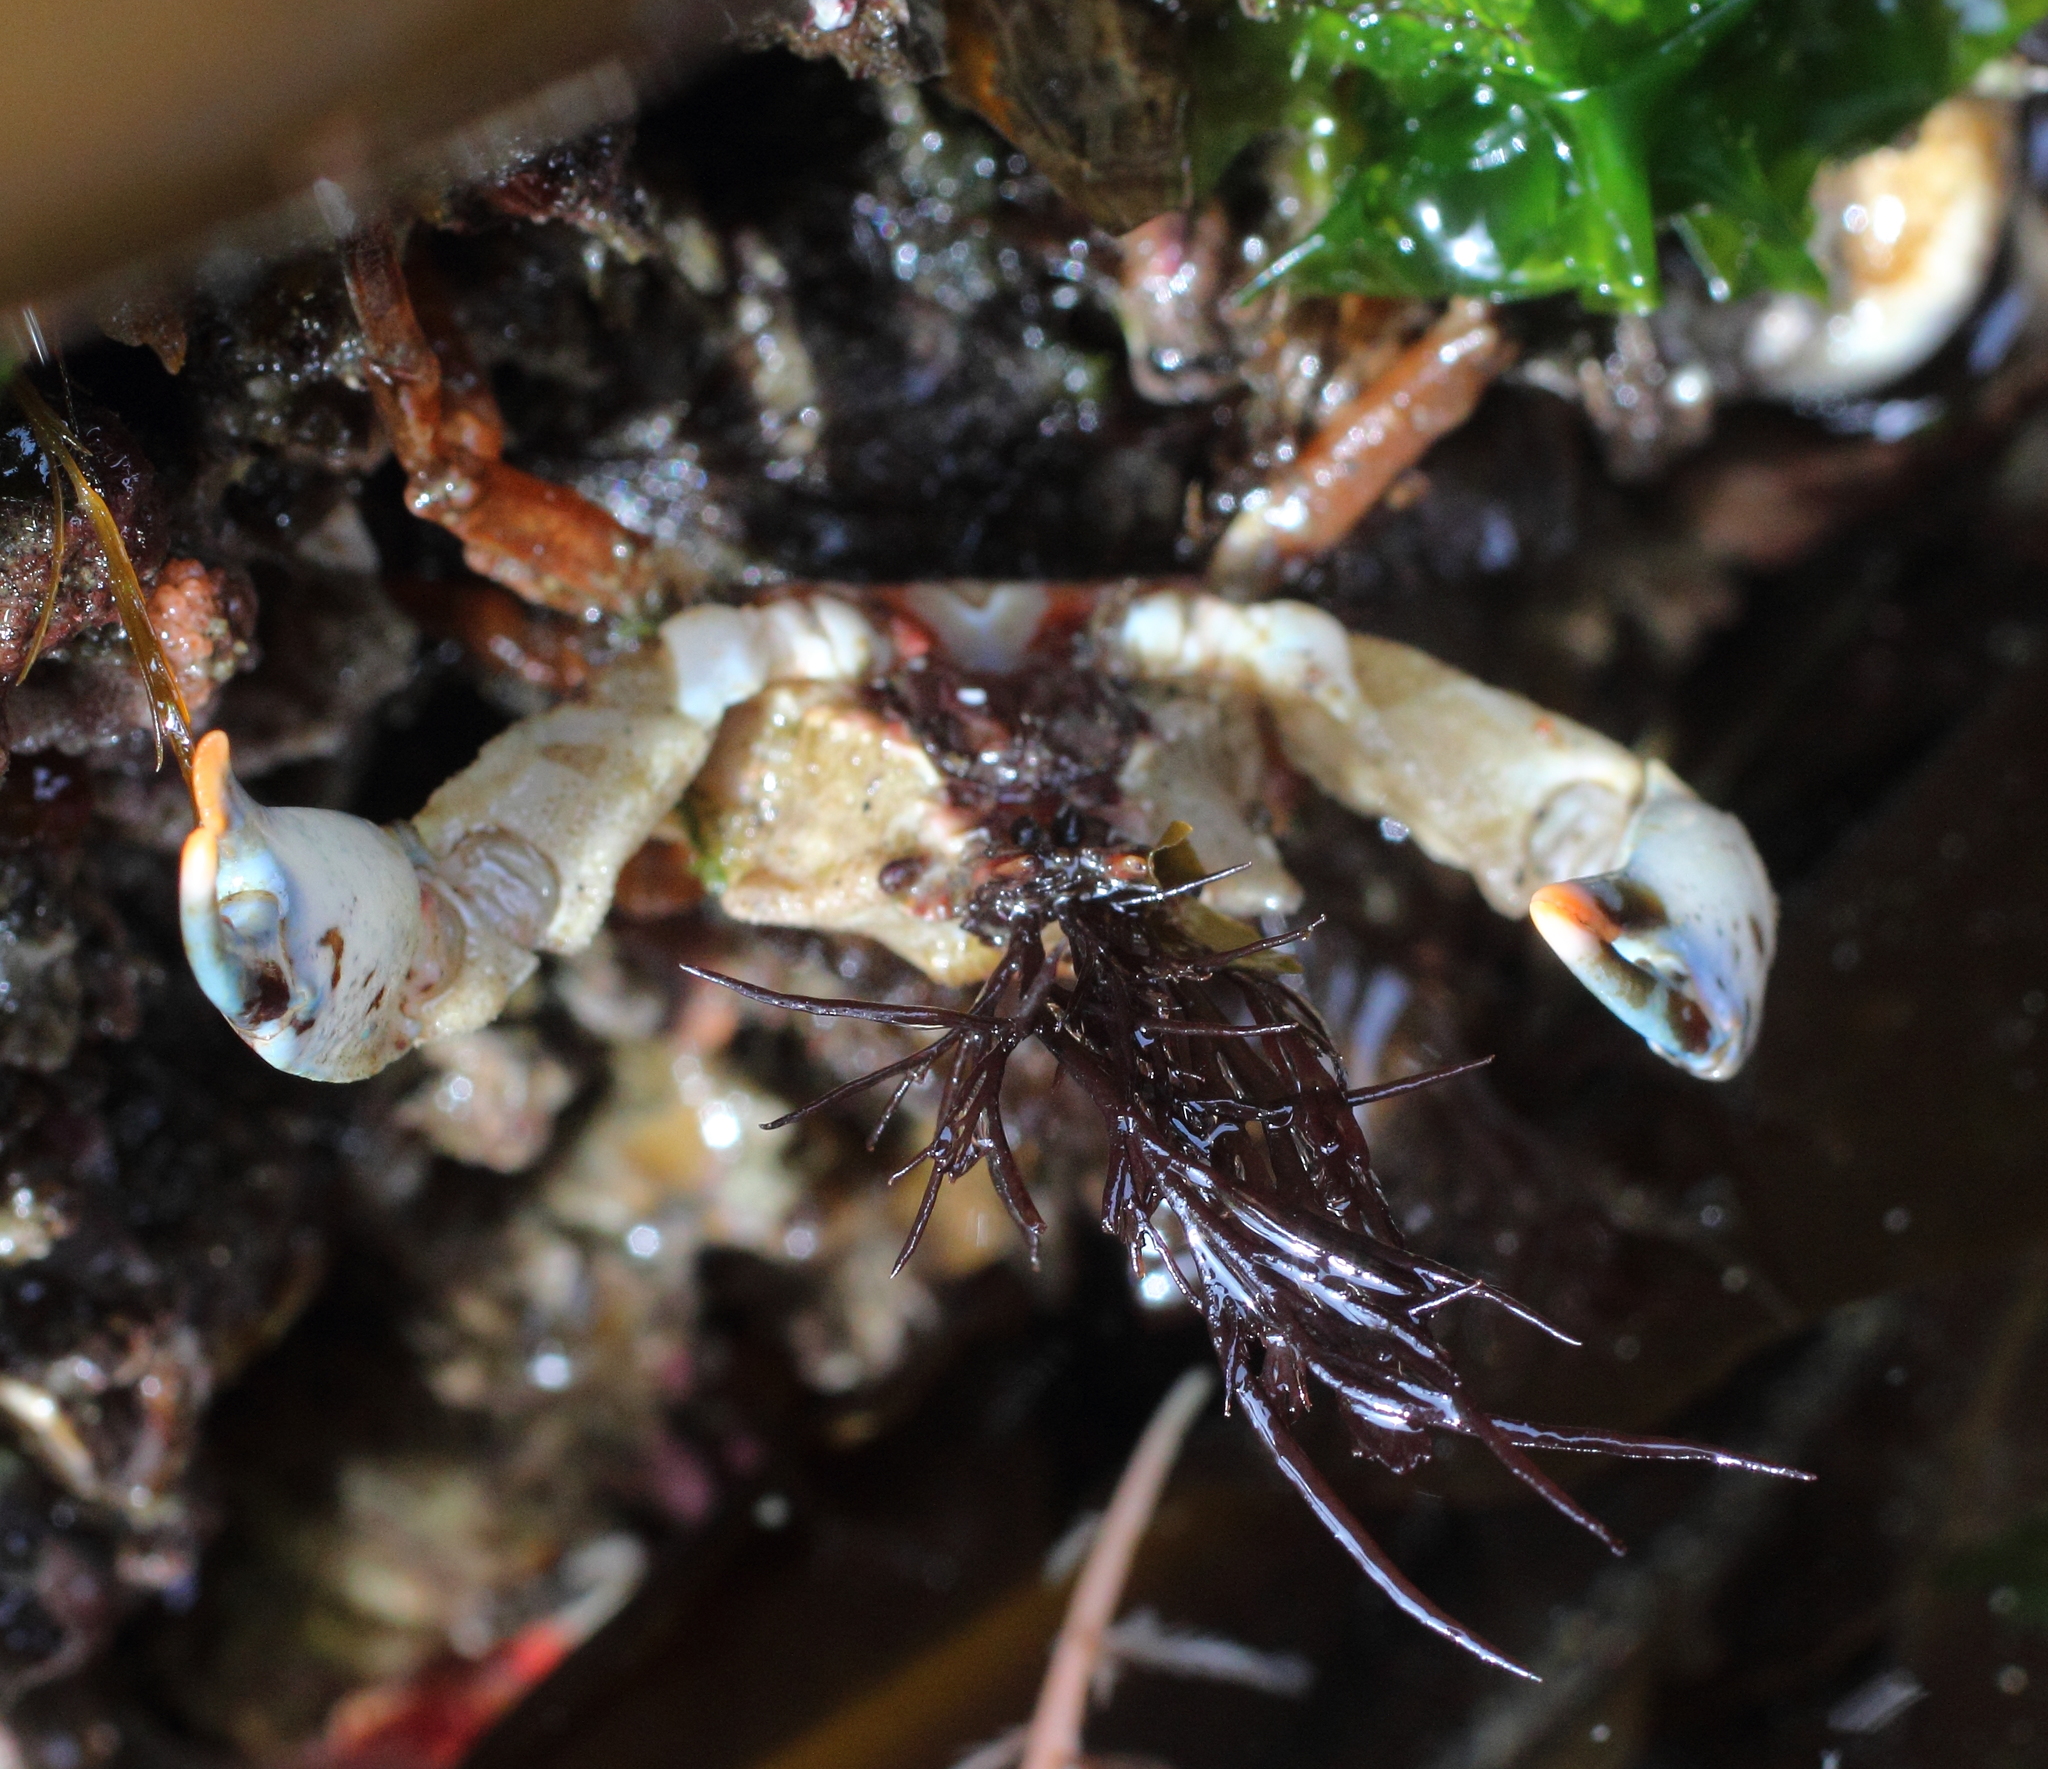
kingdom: Animalia
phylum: Arthropoda
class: Malacostraca
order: Decapoda
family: Epialtidae
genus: Pugettia
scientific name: Pugettia gracilis
